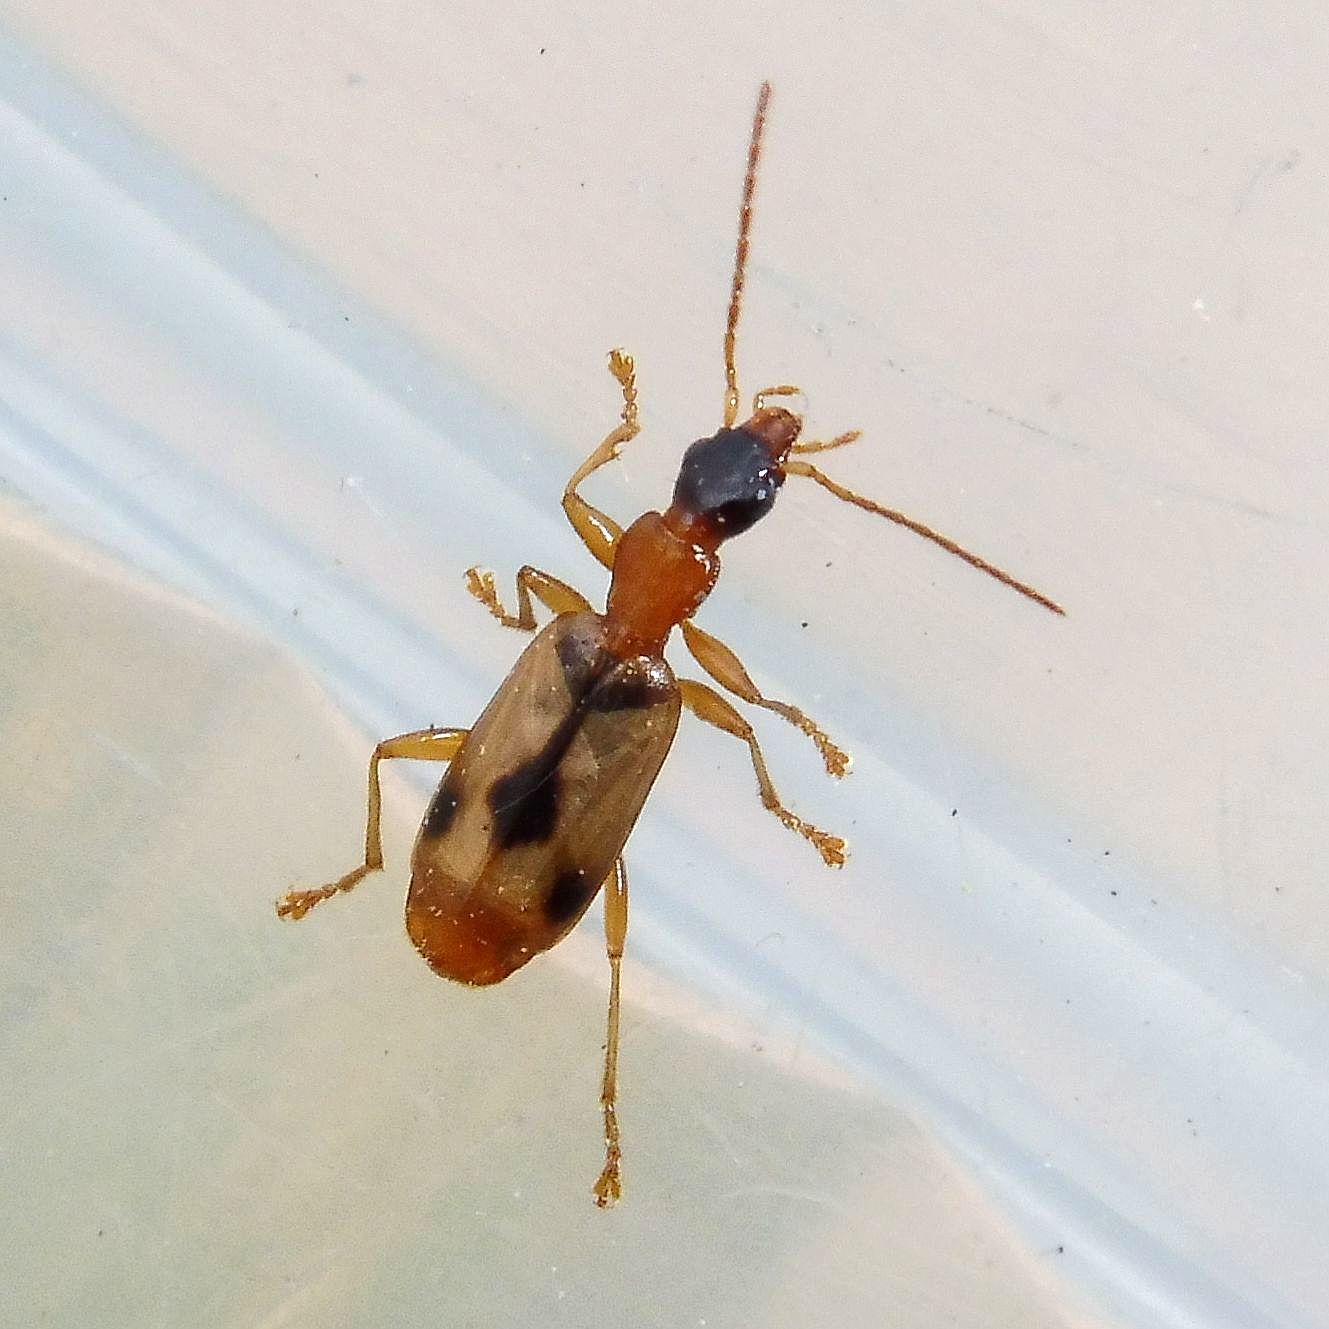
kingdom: Animalia
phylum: Arthropoda
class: Insecta
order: Coleoptera
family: Carabidae
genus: Demetrias
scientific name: Demetrias imperialis
